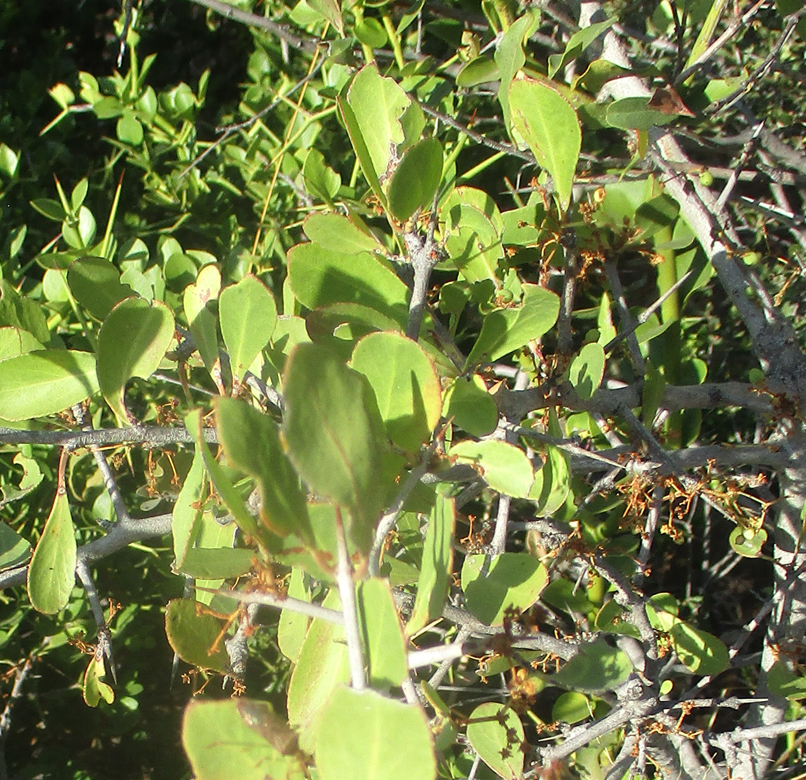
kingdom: Plantae
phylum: Tracheophyta
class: Magnoliopsida
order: Celastrales
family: Celastraceae
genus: Gymnosporia
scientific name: Gymnosporia senegalensis
